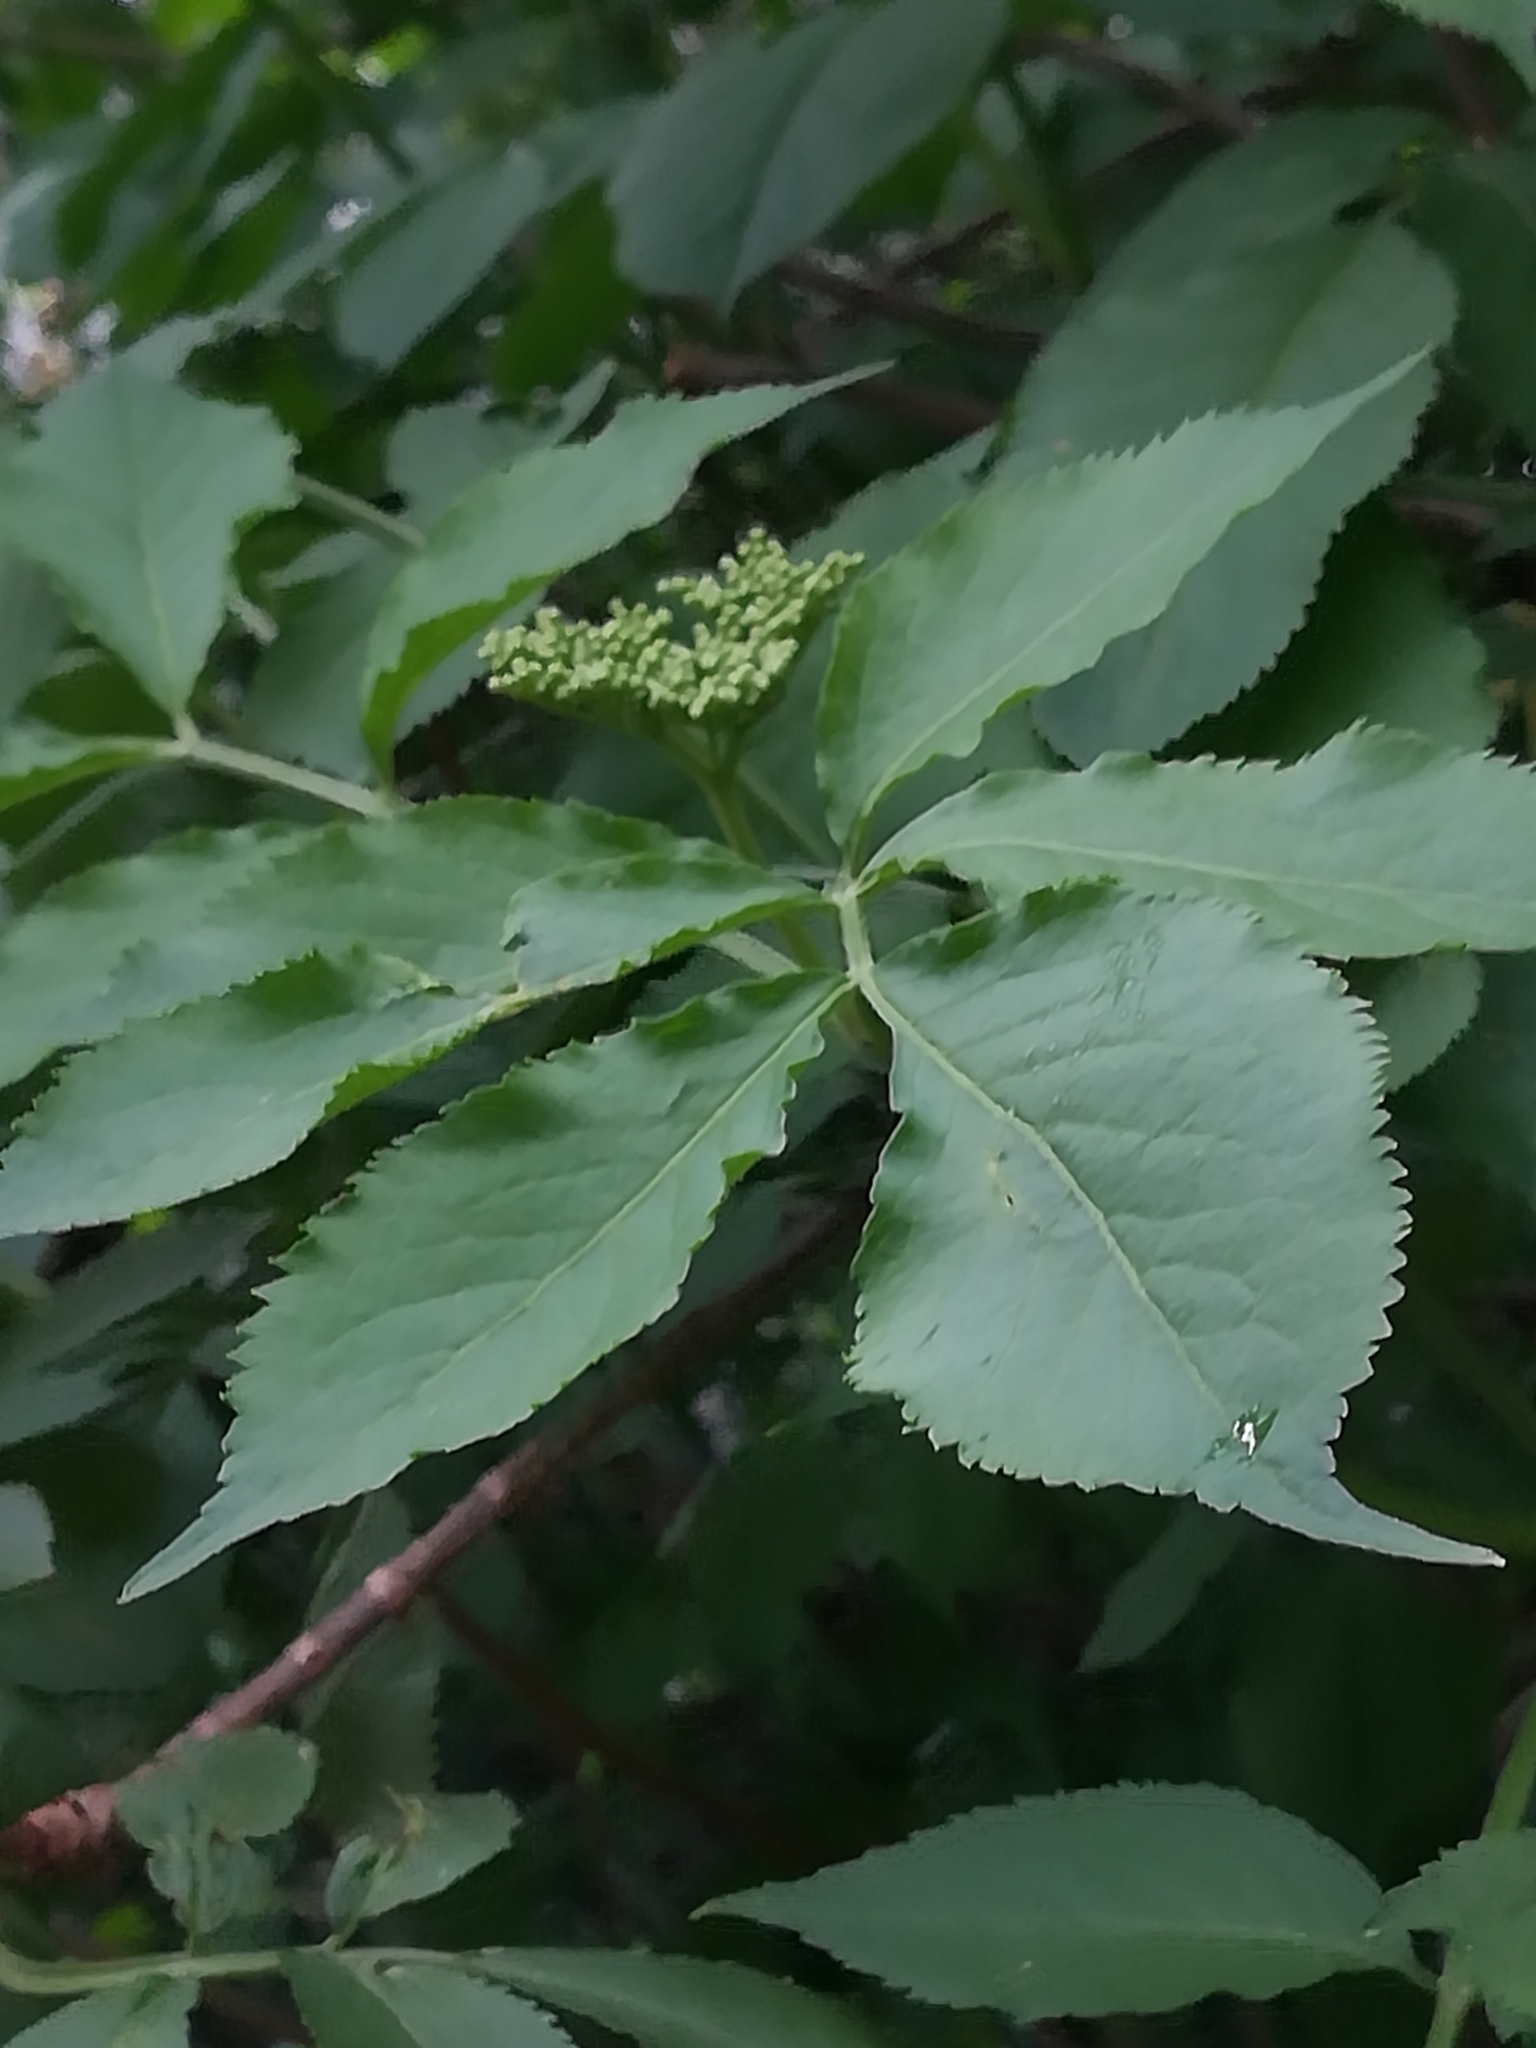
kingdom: Plantae
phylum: Tracheophyta
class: Magnoliopsida
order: Dipsacales
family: Viburnaceae
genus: Sambucus
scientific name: Sambucus nigra
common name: Elder
